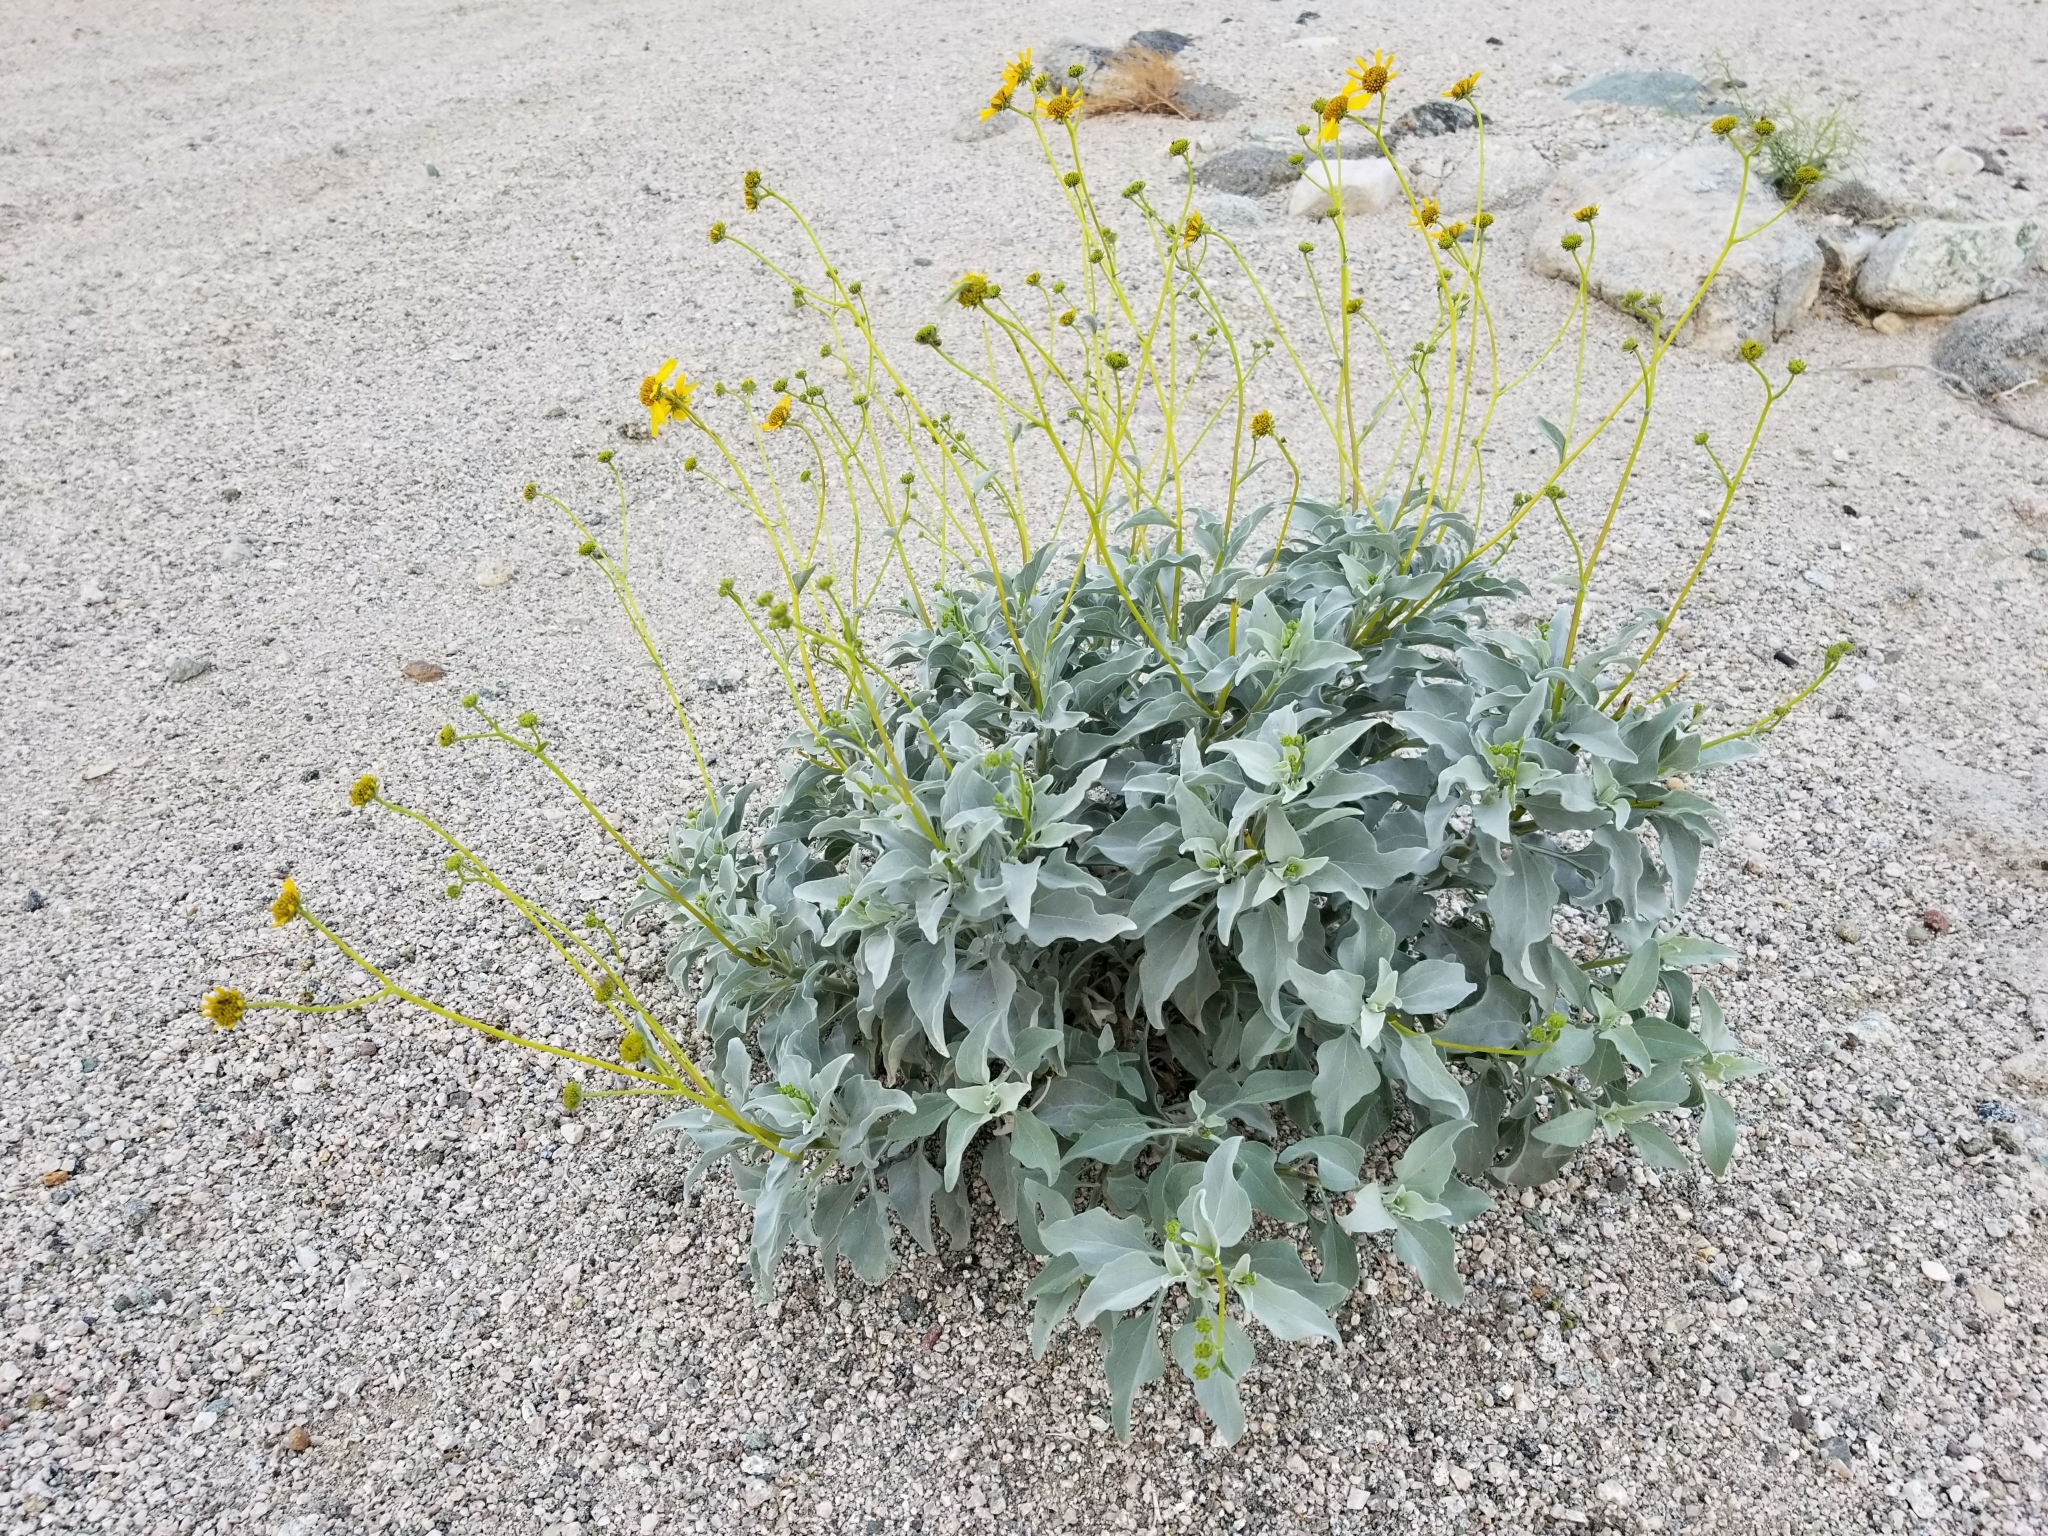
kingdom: Plantae
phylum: Tracheophyta
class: Magnoliopsida
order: Asterales
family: Asteraceae
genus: Encelia
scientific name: Encelia farinosa
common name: Brittlebush
